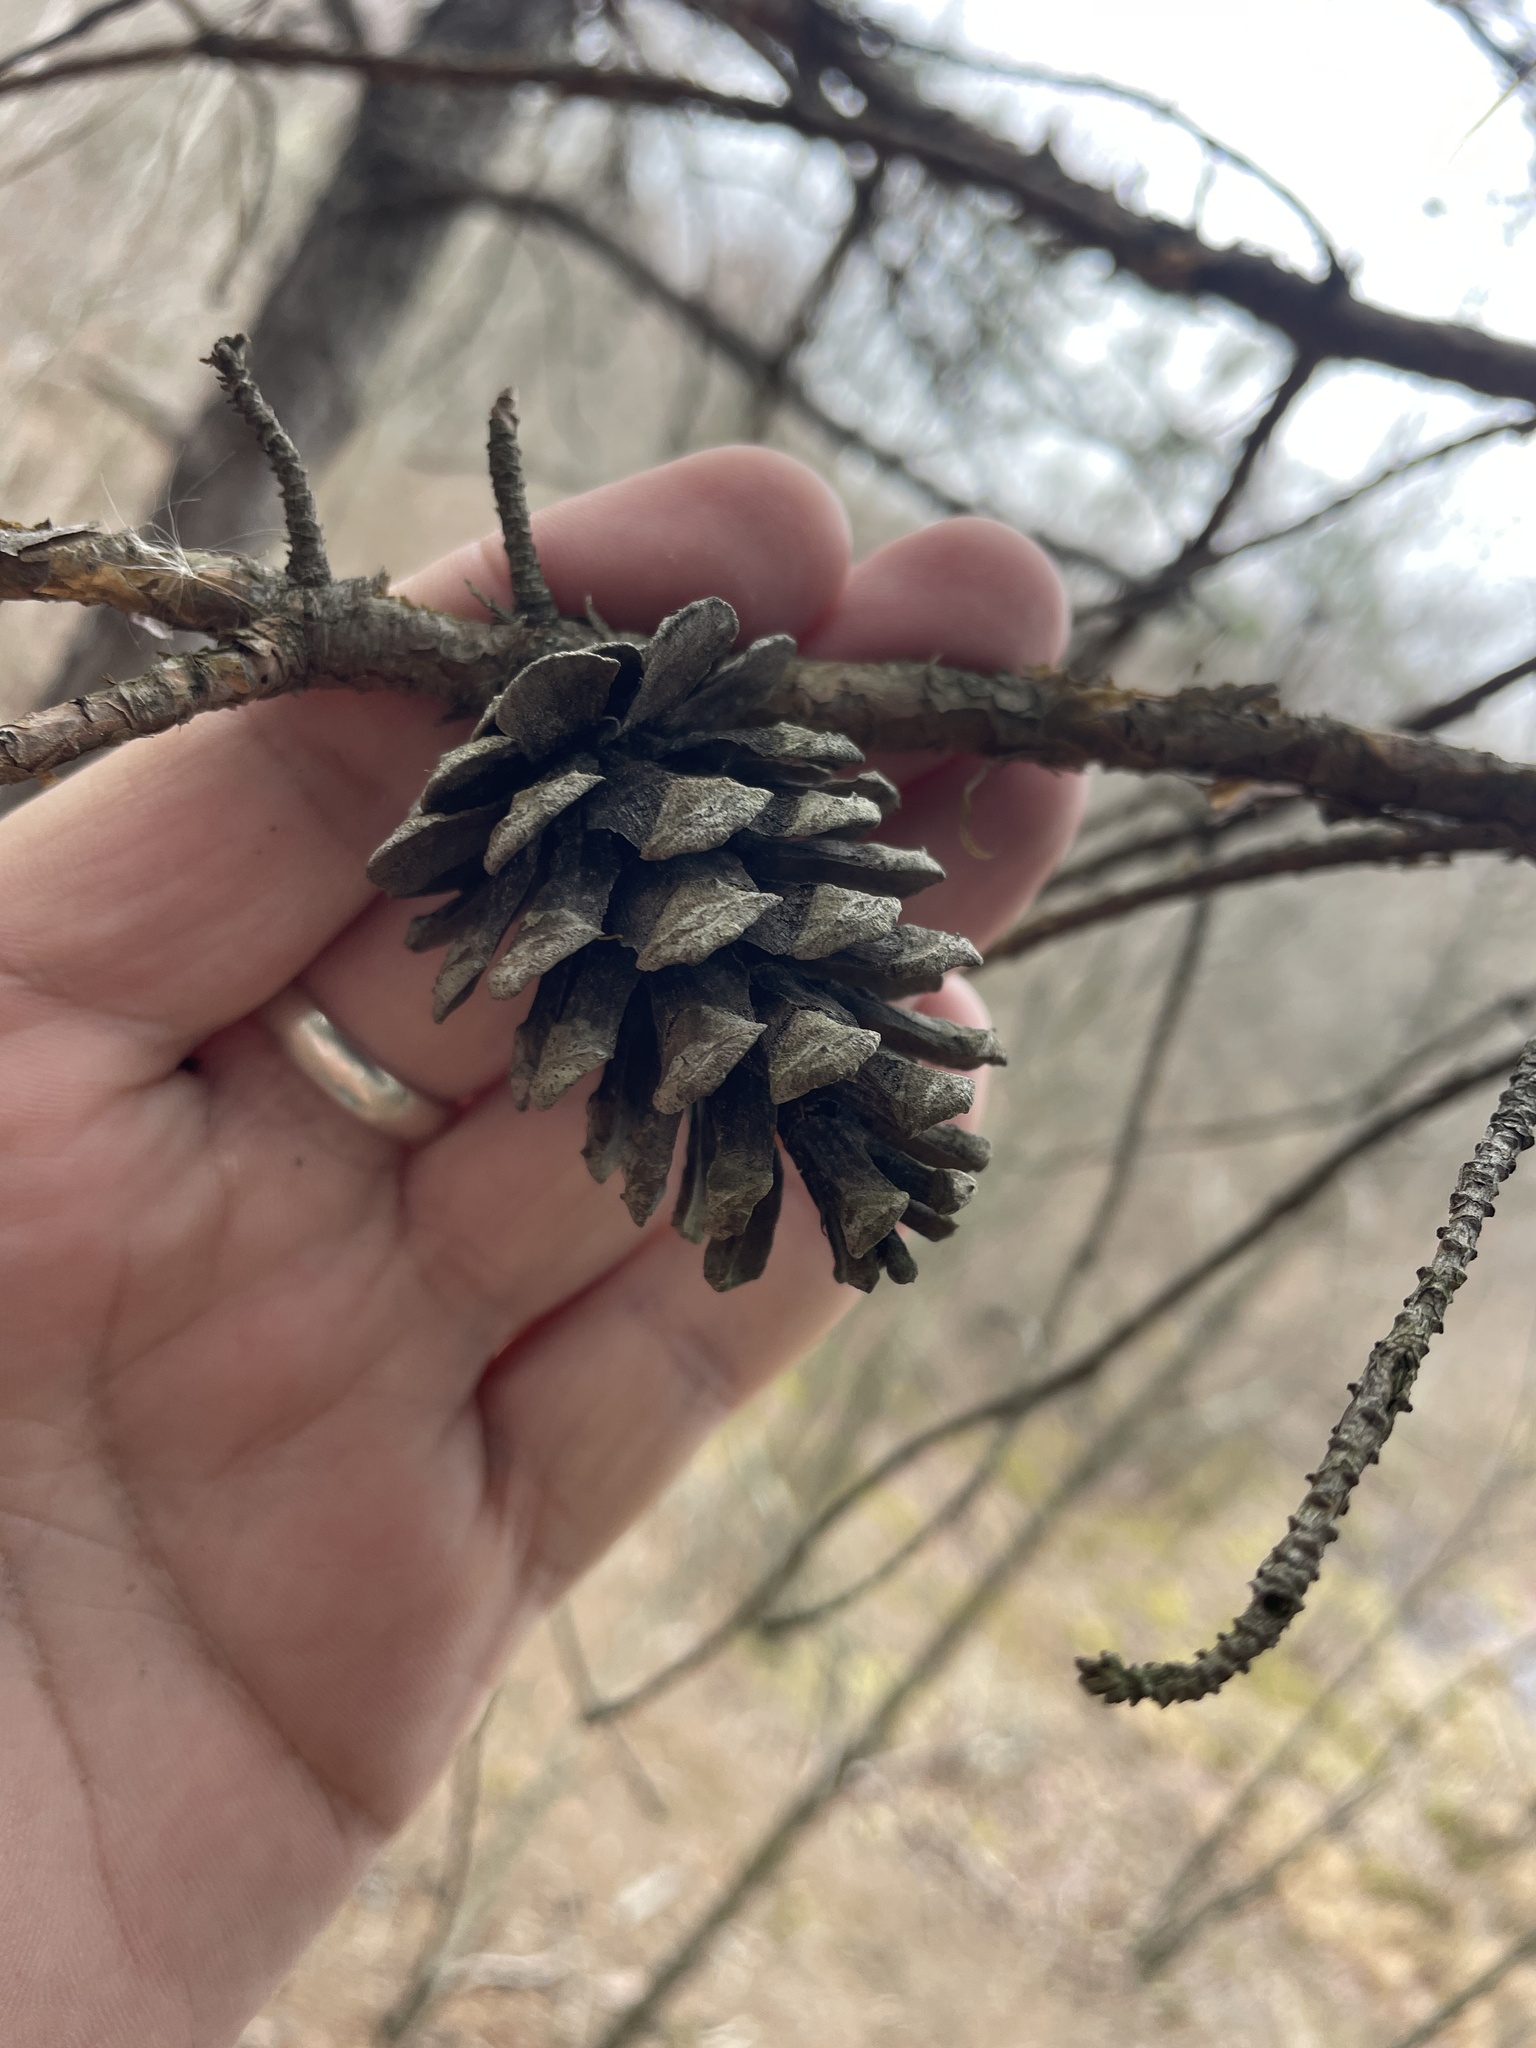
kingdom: Plantae
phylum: Tracheophyta
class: Pinopsida
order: Pinales
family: Pinaceae
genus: Pinus
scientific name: Pinus echinata
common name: Shortleaf pine
